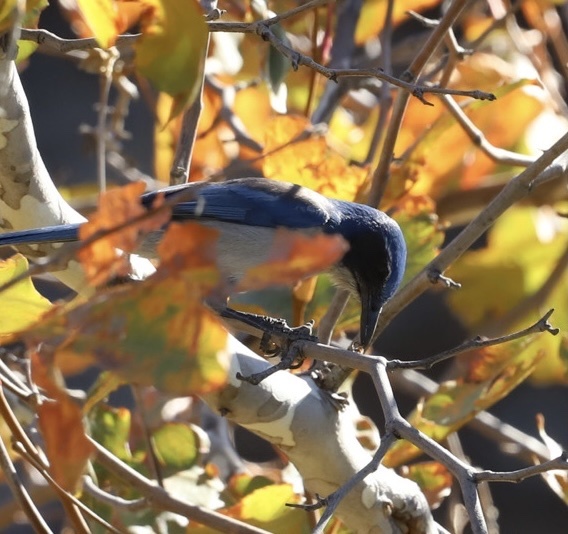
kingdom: Animalia
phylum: Chordata
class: Aves
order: Passeriformes
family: Corvidae
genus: Aphelocoma
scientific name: Aphelocoma californica
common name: California scrub-jay
